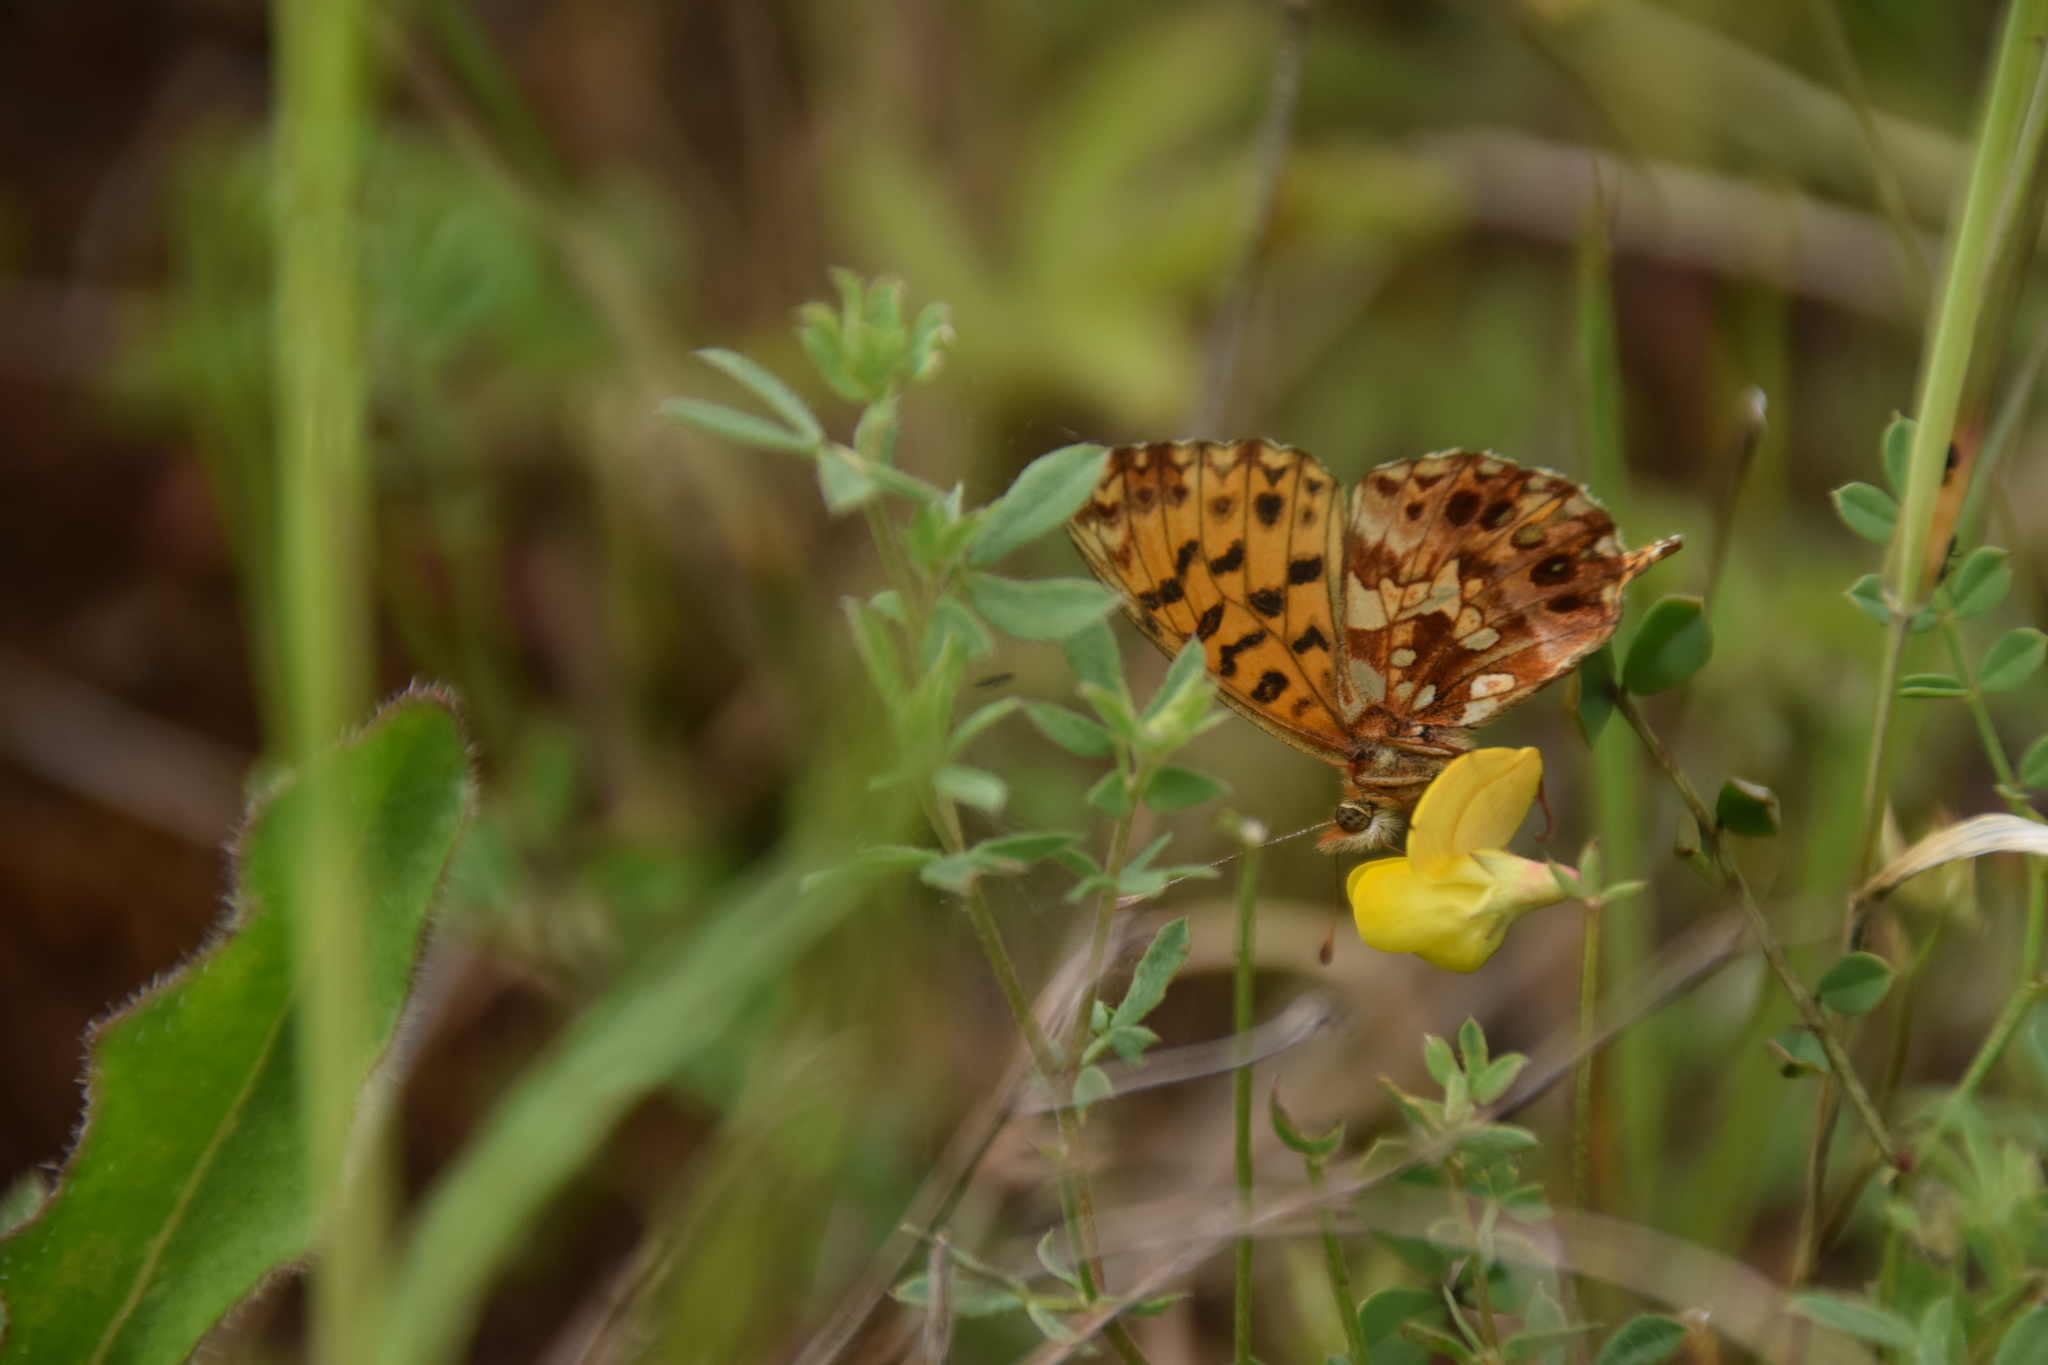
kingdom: Animalia
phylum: Arthropoda
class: Insecta
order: Lepidoptera
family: Nymphalidae
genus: Boloria
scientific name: Boloria dia
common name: Weaver's fritillary
